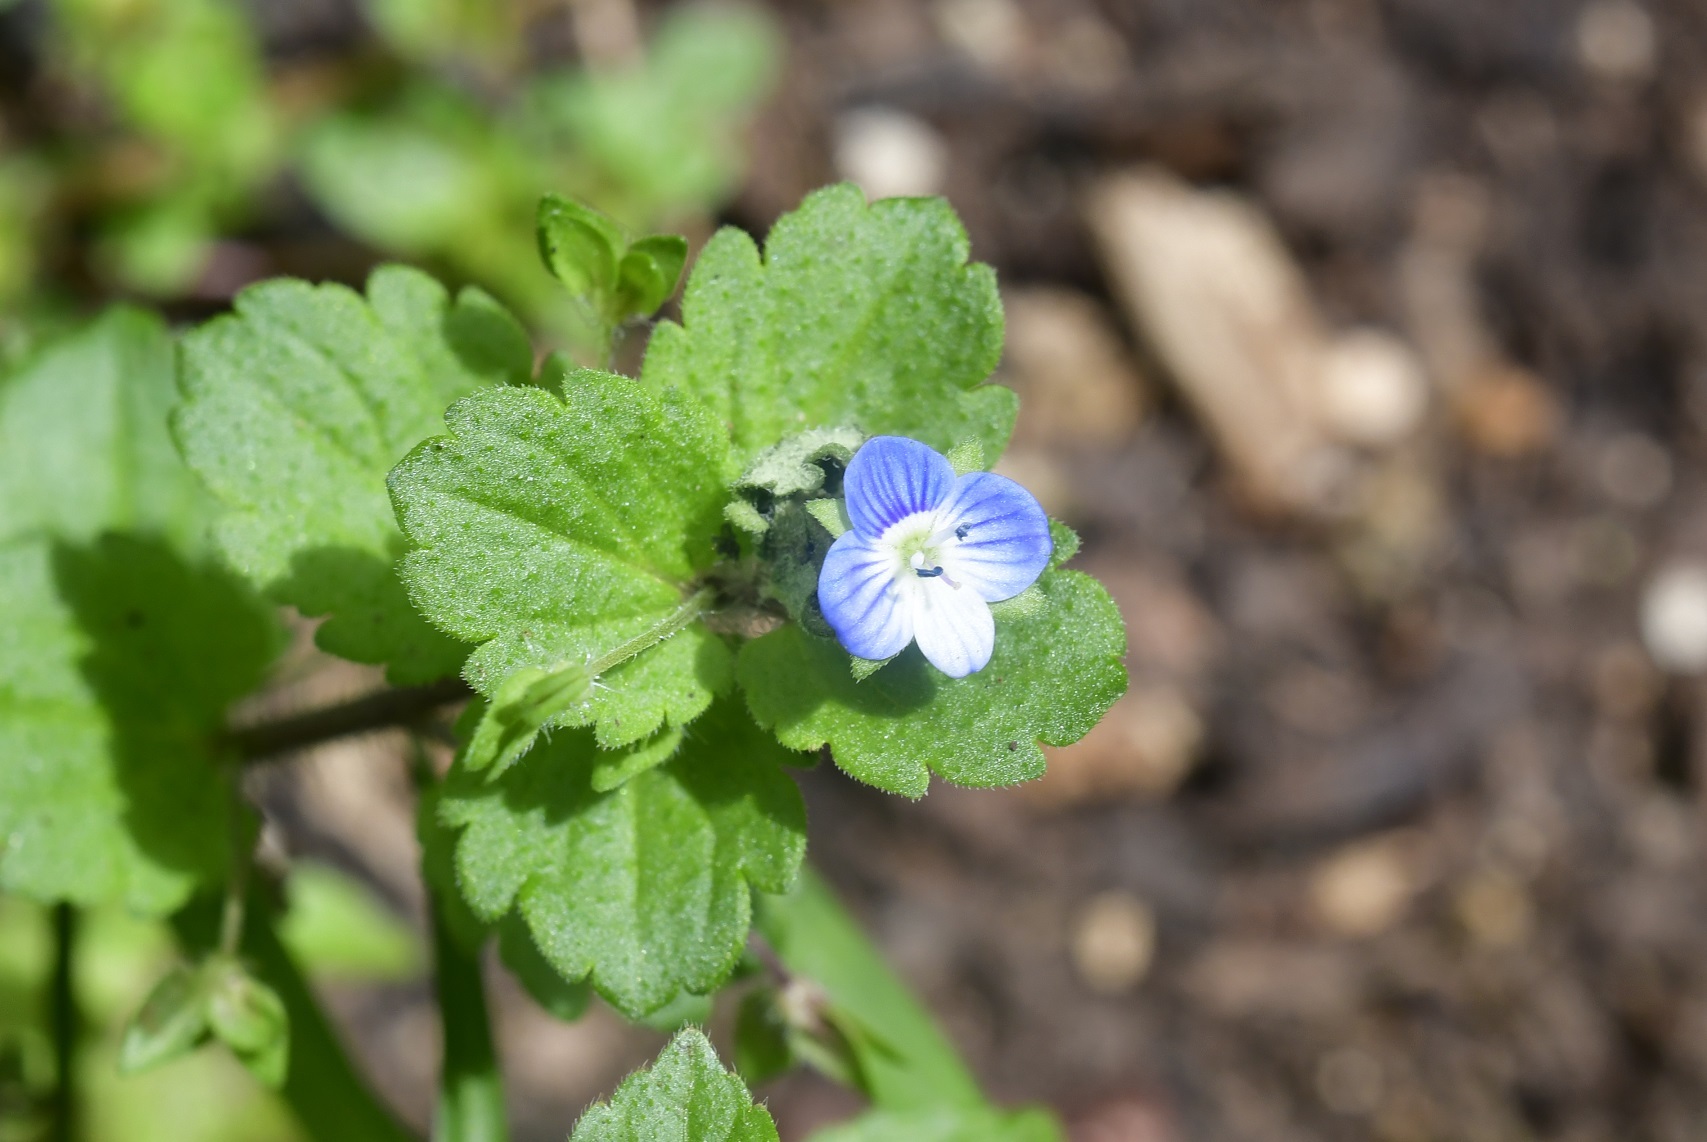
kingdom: Plantae
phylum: Tracheophyta
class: Magnoliopsida
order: Lamiales
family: Plantaginaceae
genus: Veronica
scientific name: Veronica persica
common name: Common field-speedwell
